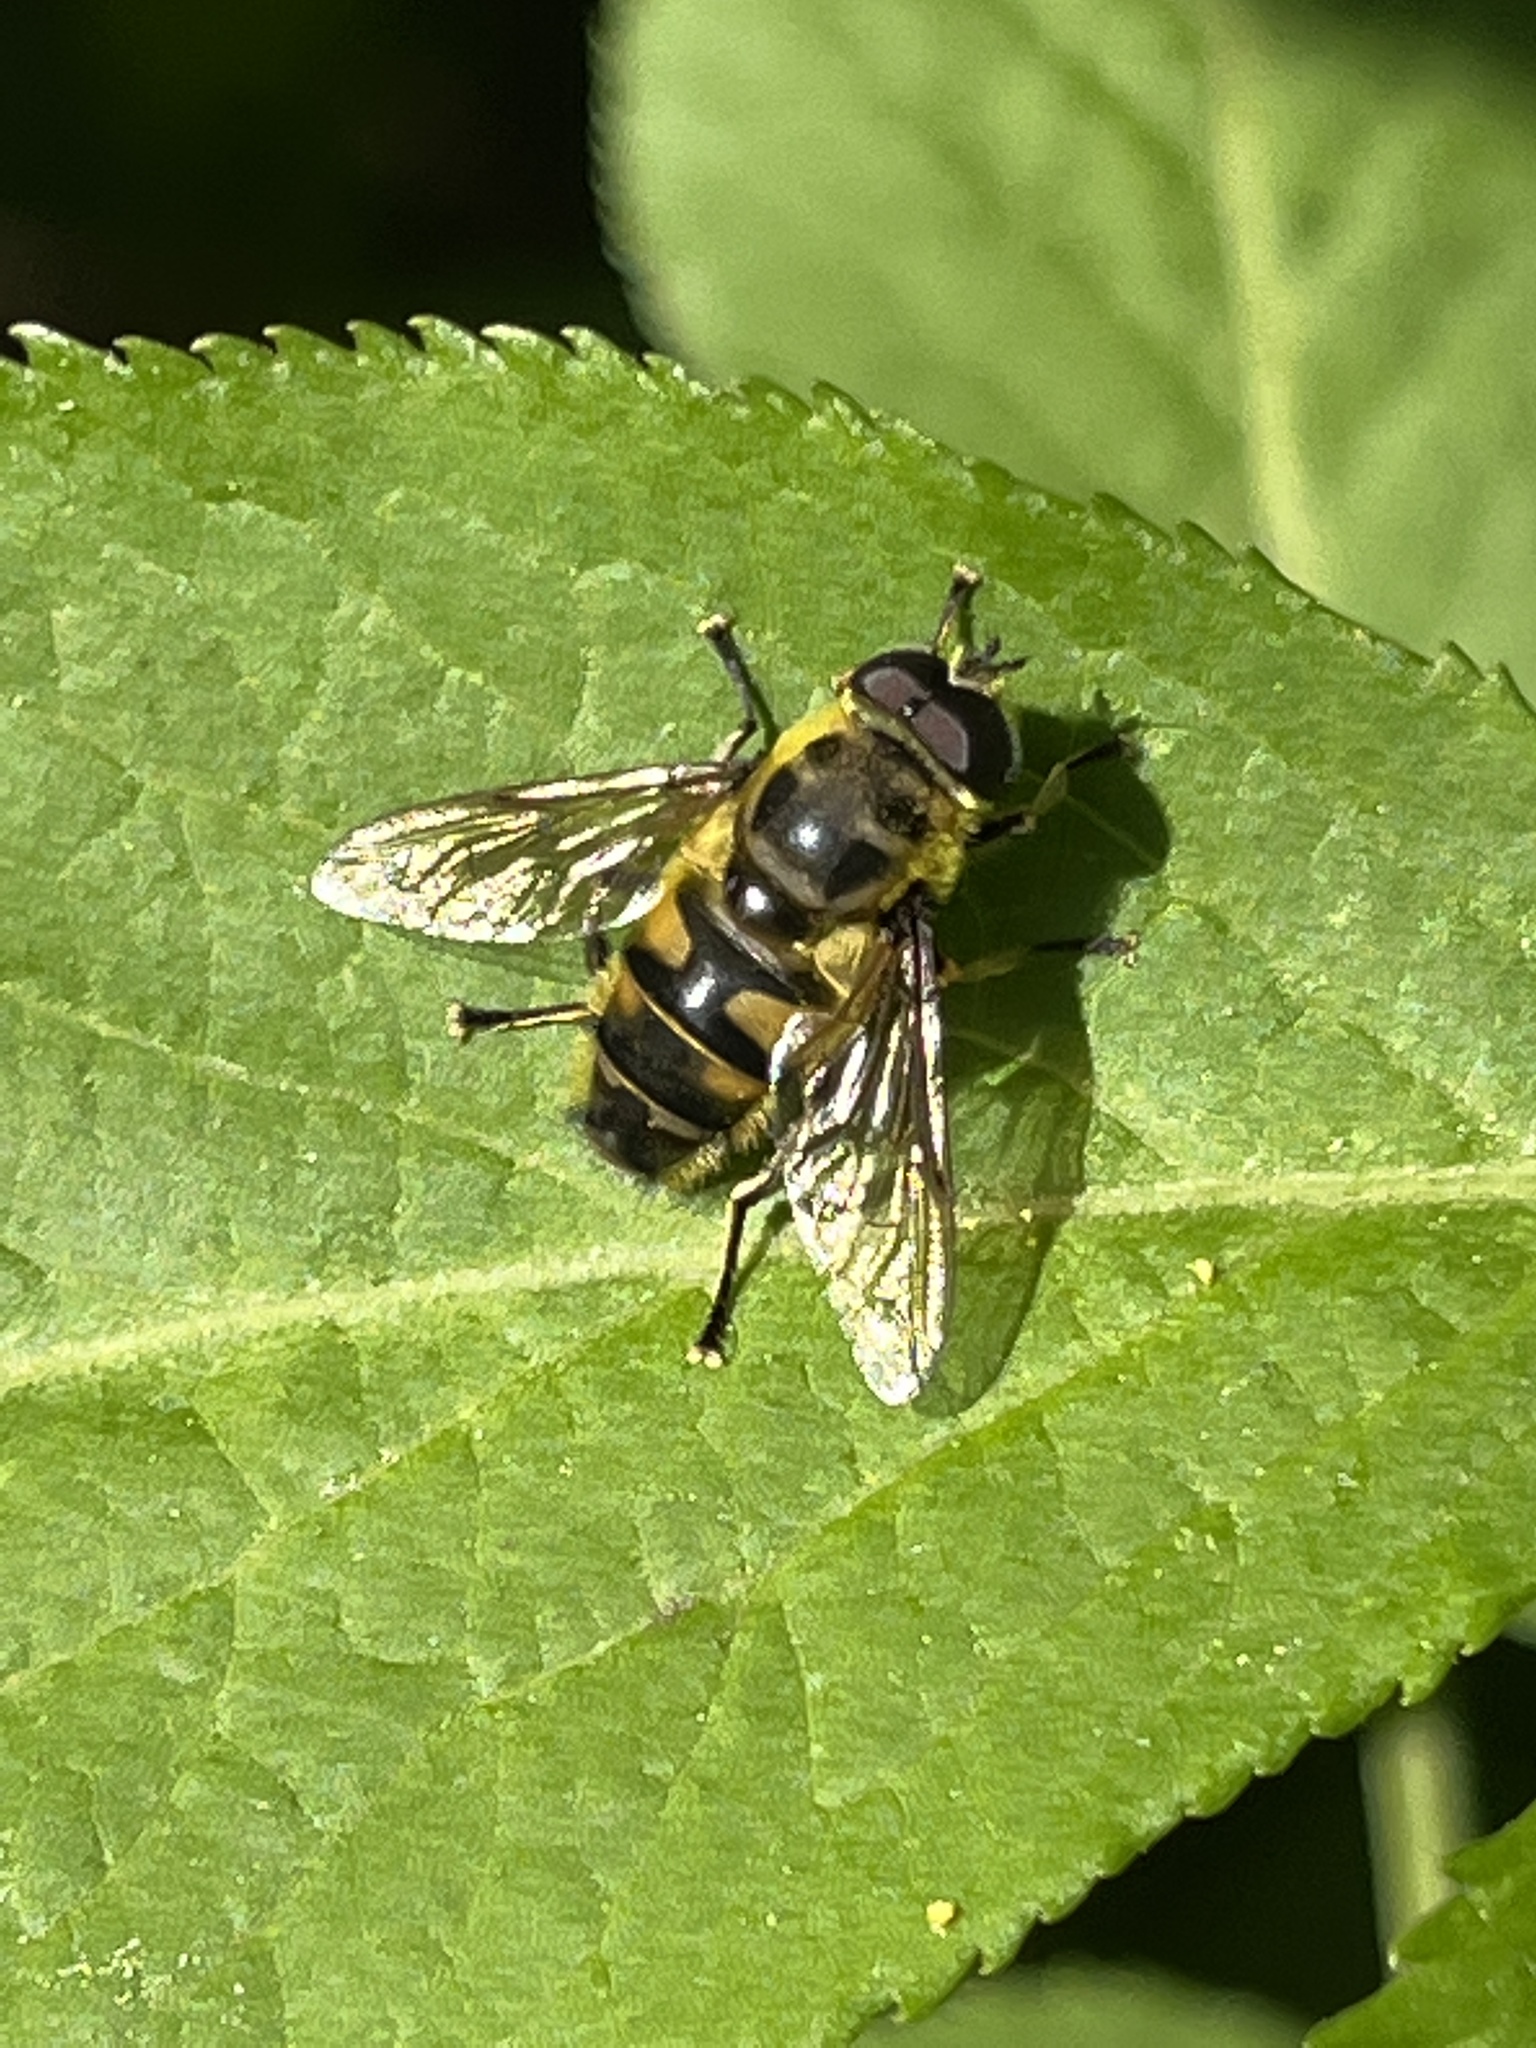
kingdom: Animalia
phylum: Arthropoda
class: Insecta
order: Diptera
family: Syrphidae
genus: Myathropa
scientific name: Myathropa florea
